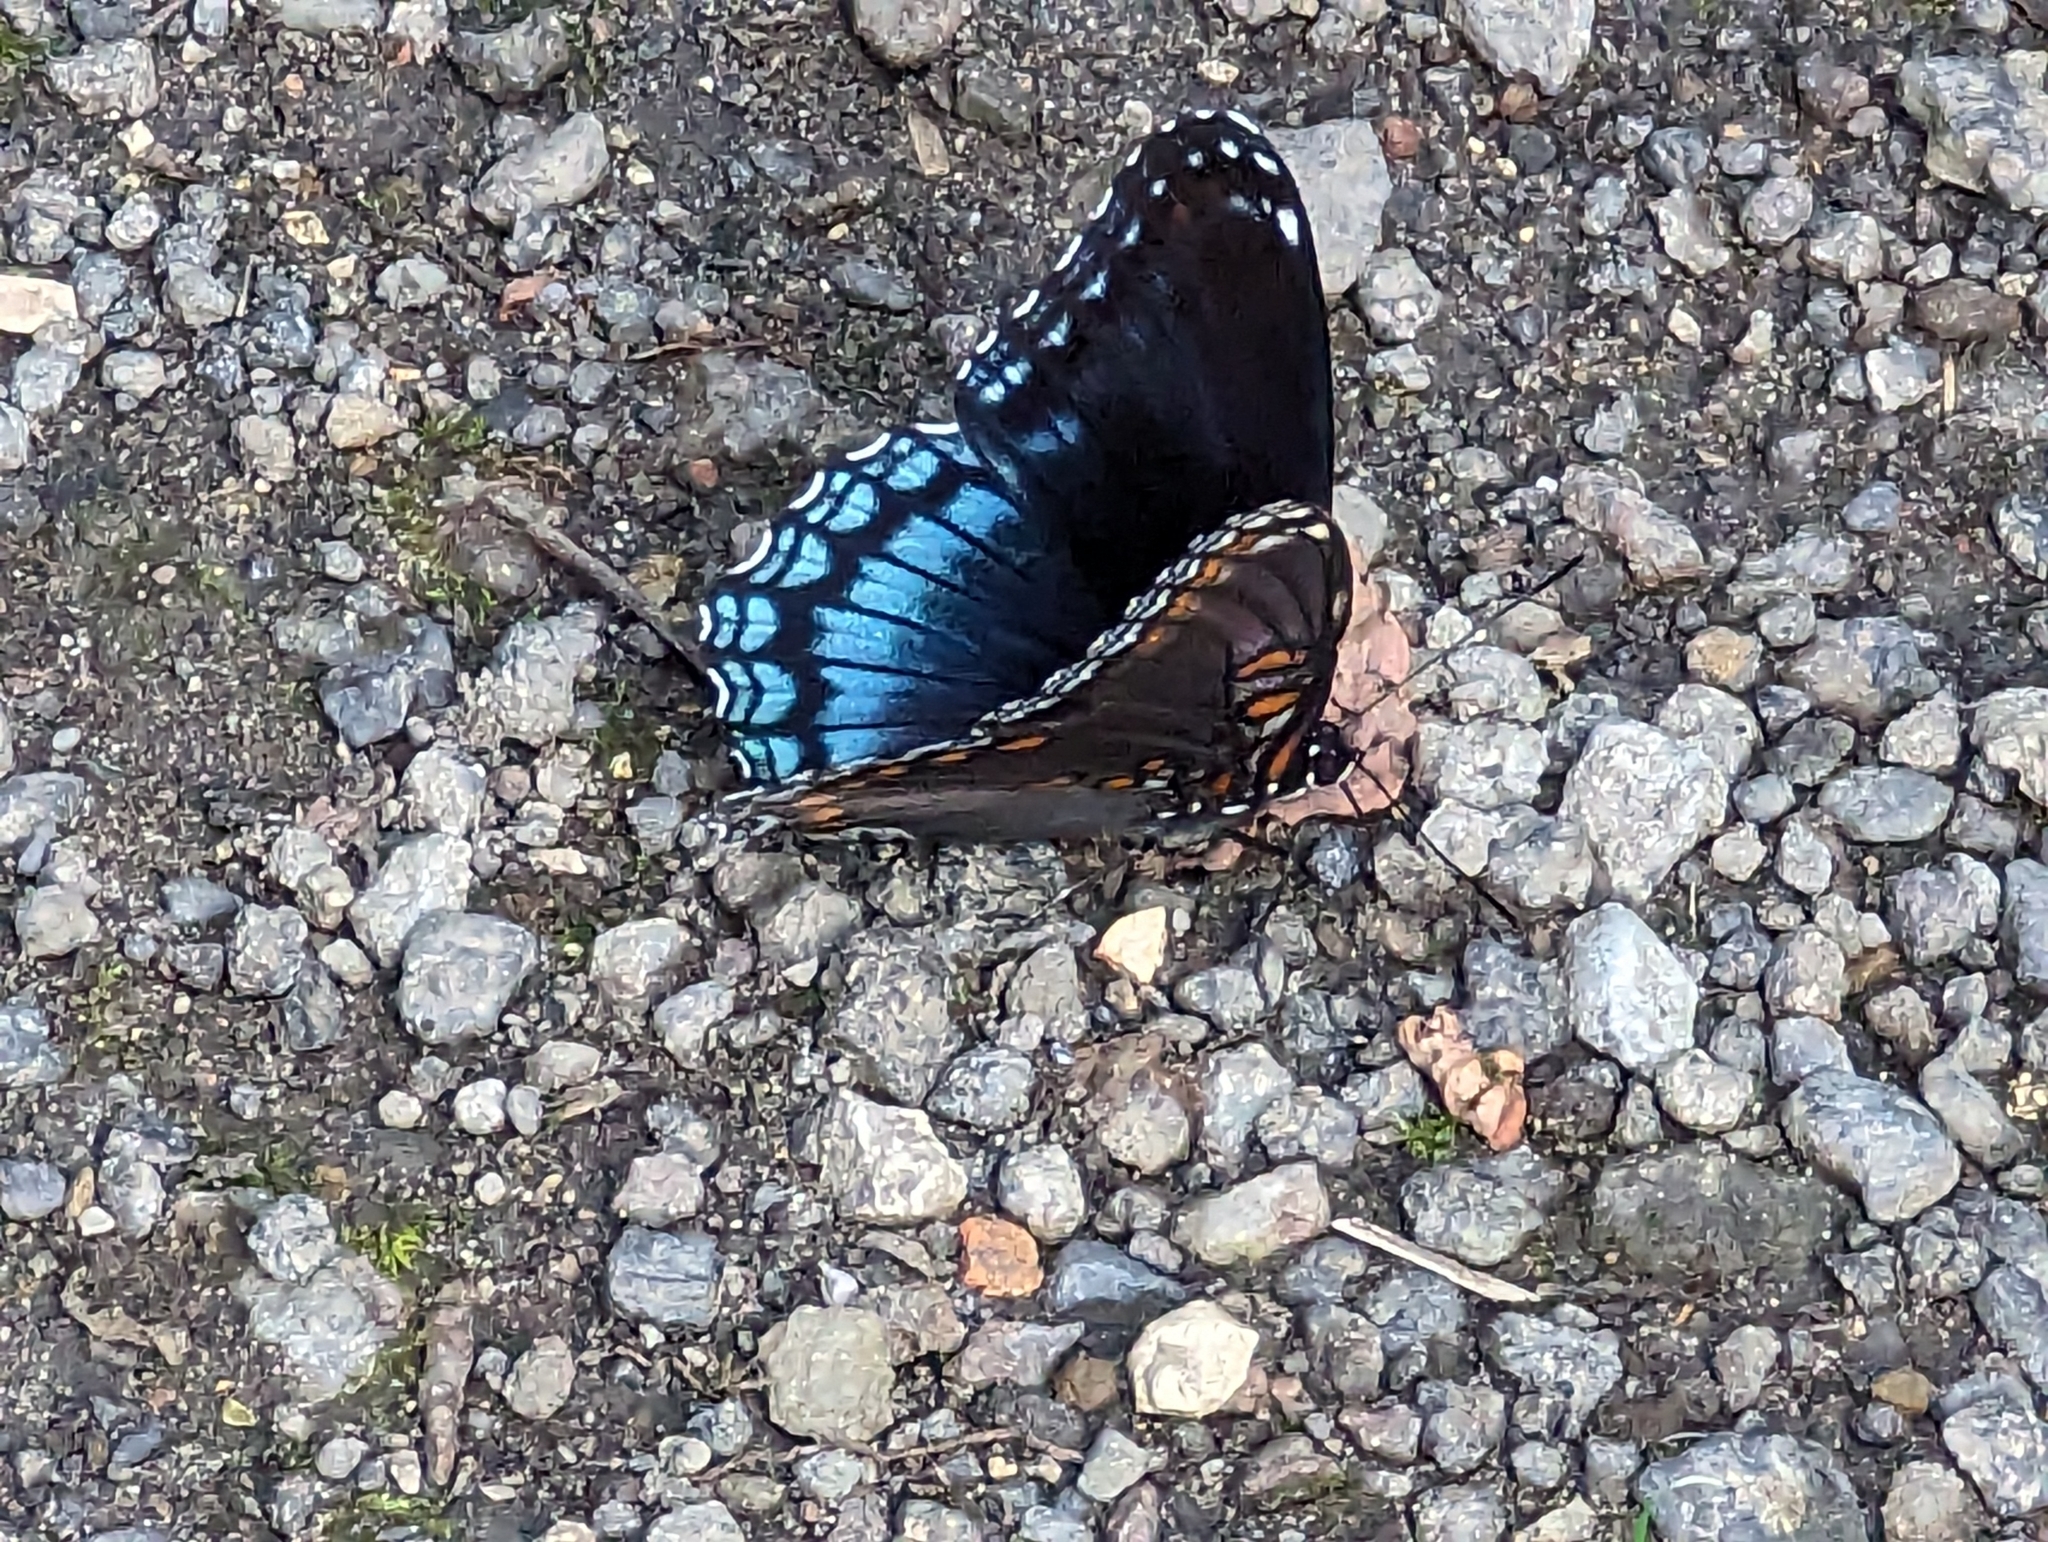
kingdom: Animalia
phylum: Arthropoda
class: Insecta
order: Lepidoptera
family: Nymphalidae
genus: Limenitis
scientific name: Limenitis arthemis
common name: Red-spotted admiral
